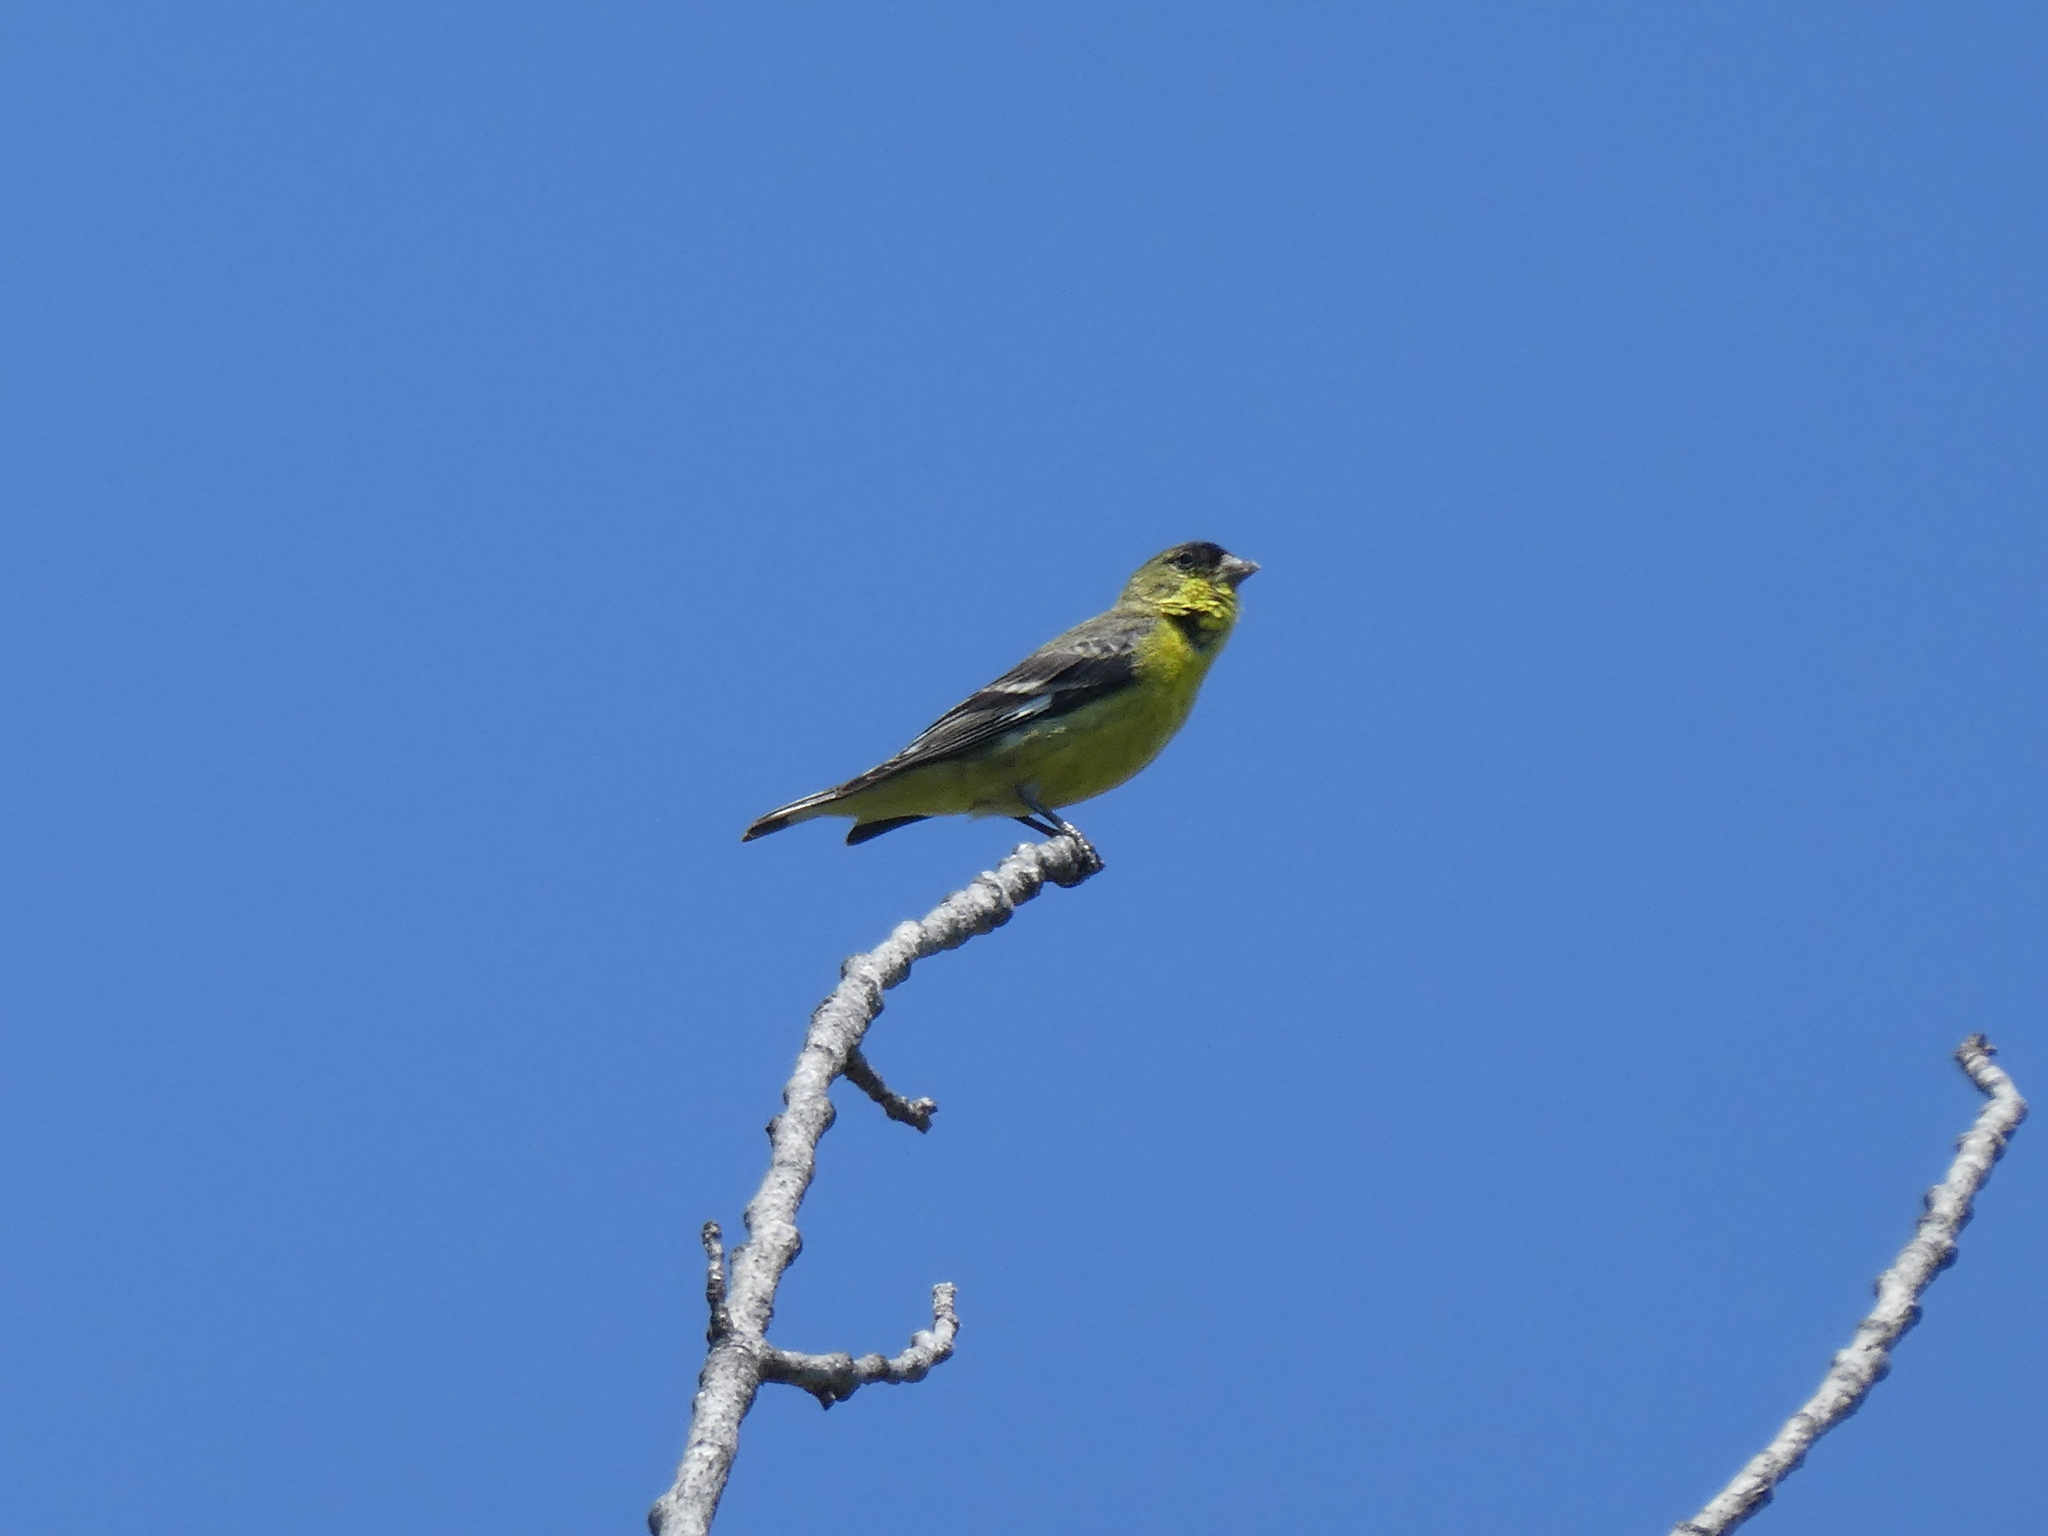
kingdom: Animalia
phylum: Chordata
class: Aves
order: Passeriformes
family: Fringillidae
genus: Spinus
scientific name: Spinus psaltria
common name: Lesser goldfinch
